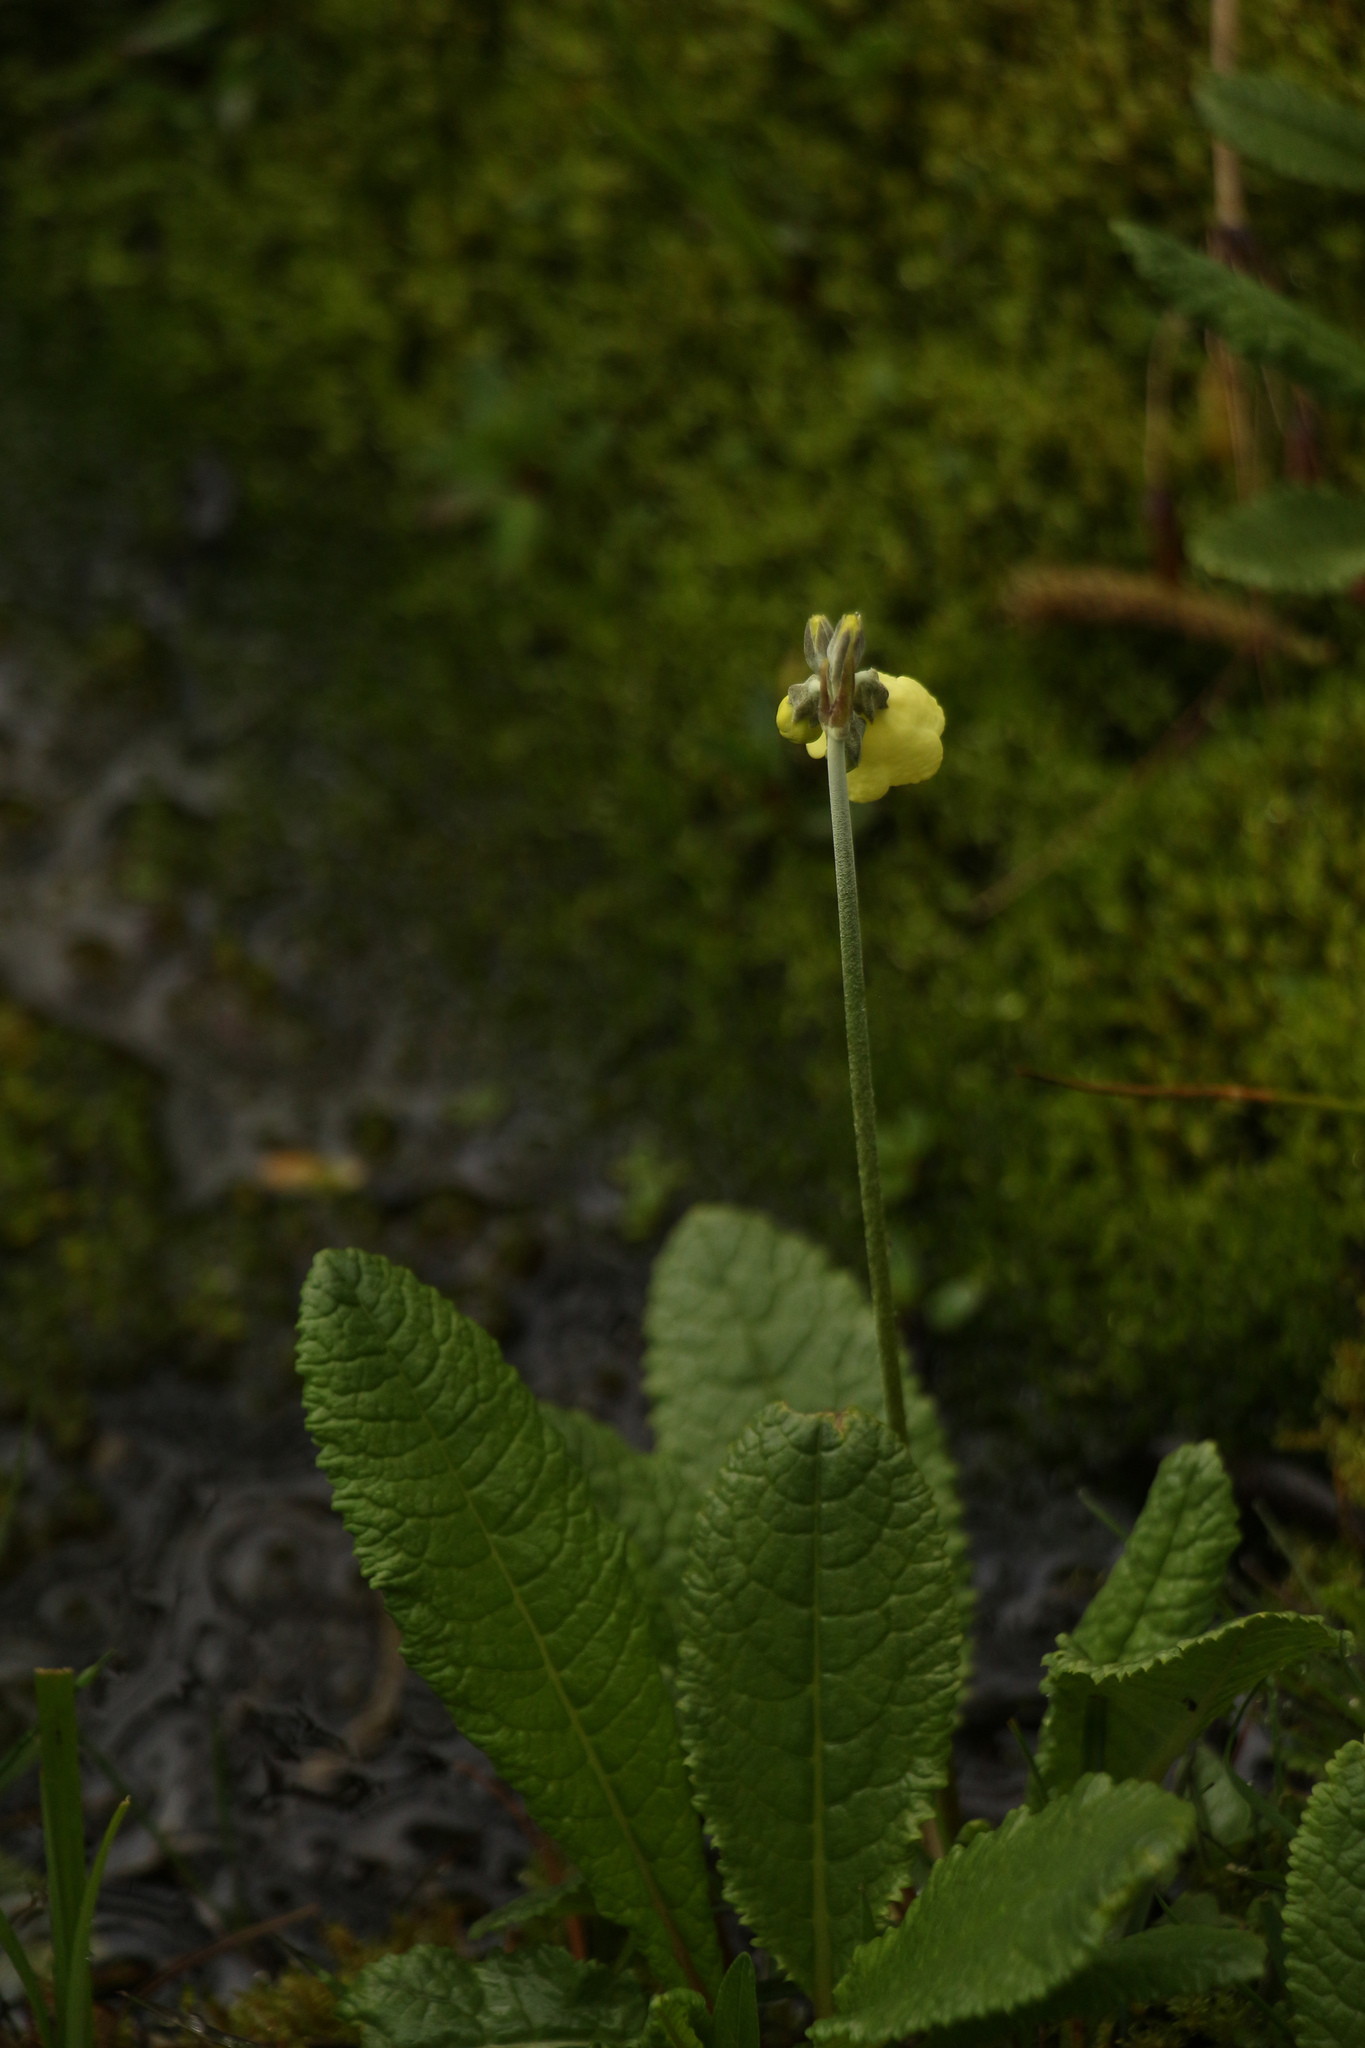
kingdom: Plantae
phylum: Tracheophyta
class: Magnoliopsida
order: Ericales
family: Primulaceae
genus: Primula
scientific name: Primula sikkimensis
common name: Sikkim cowslip
